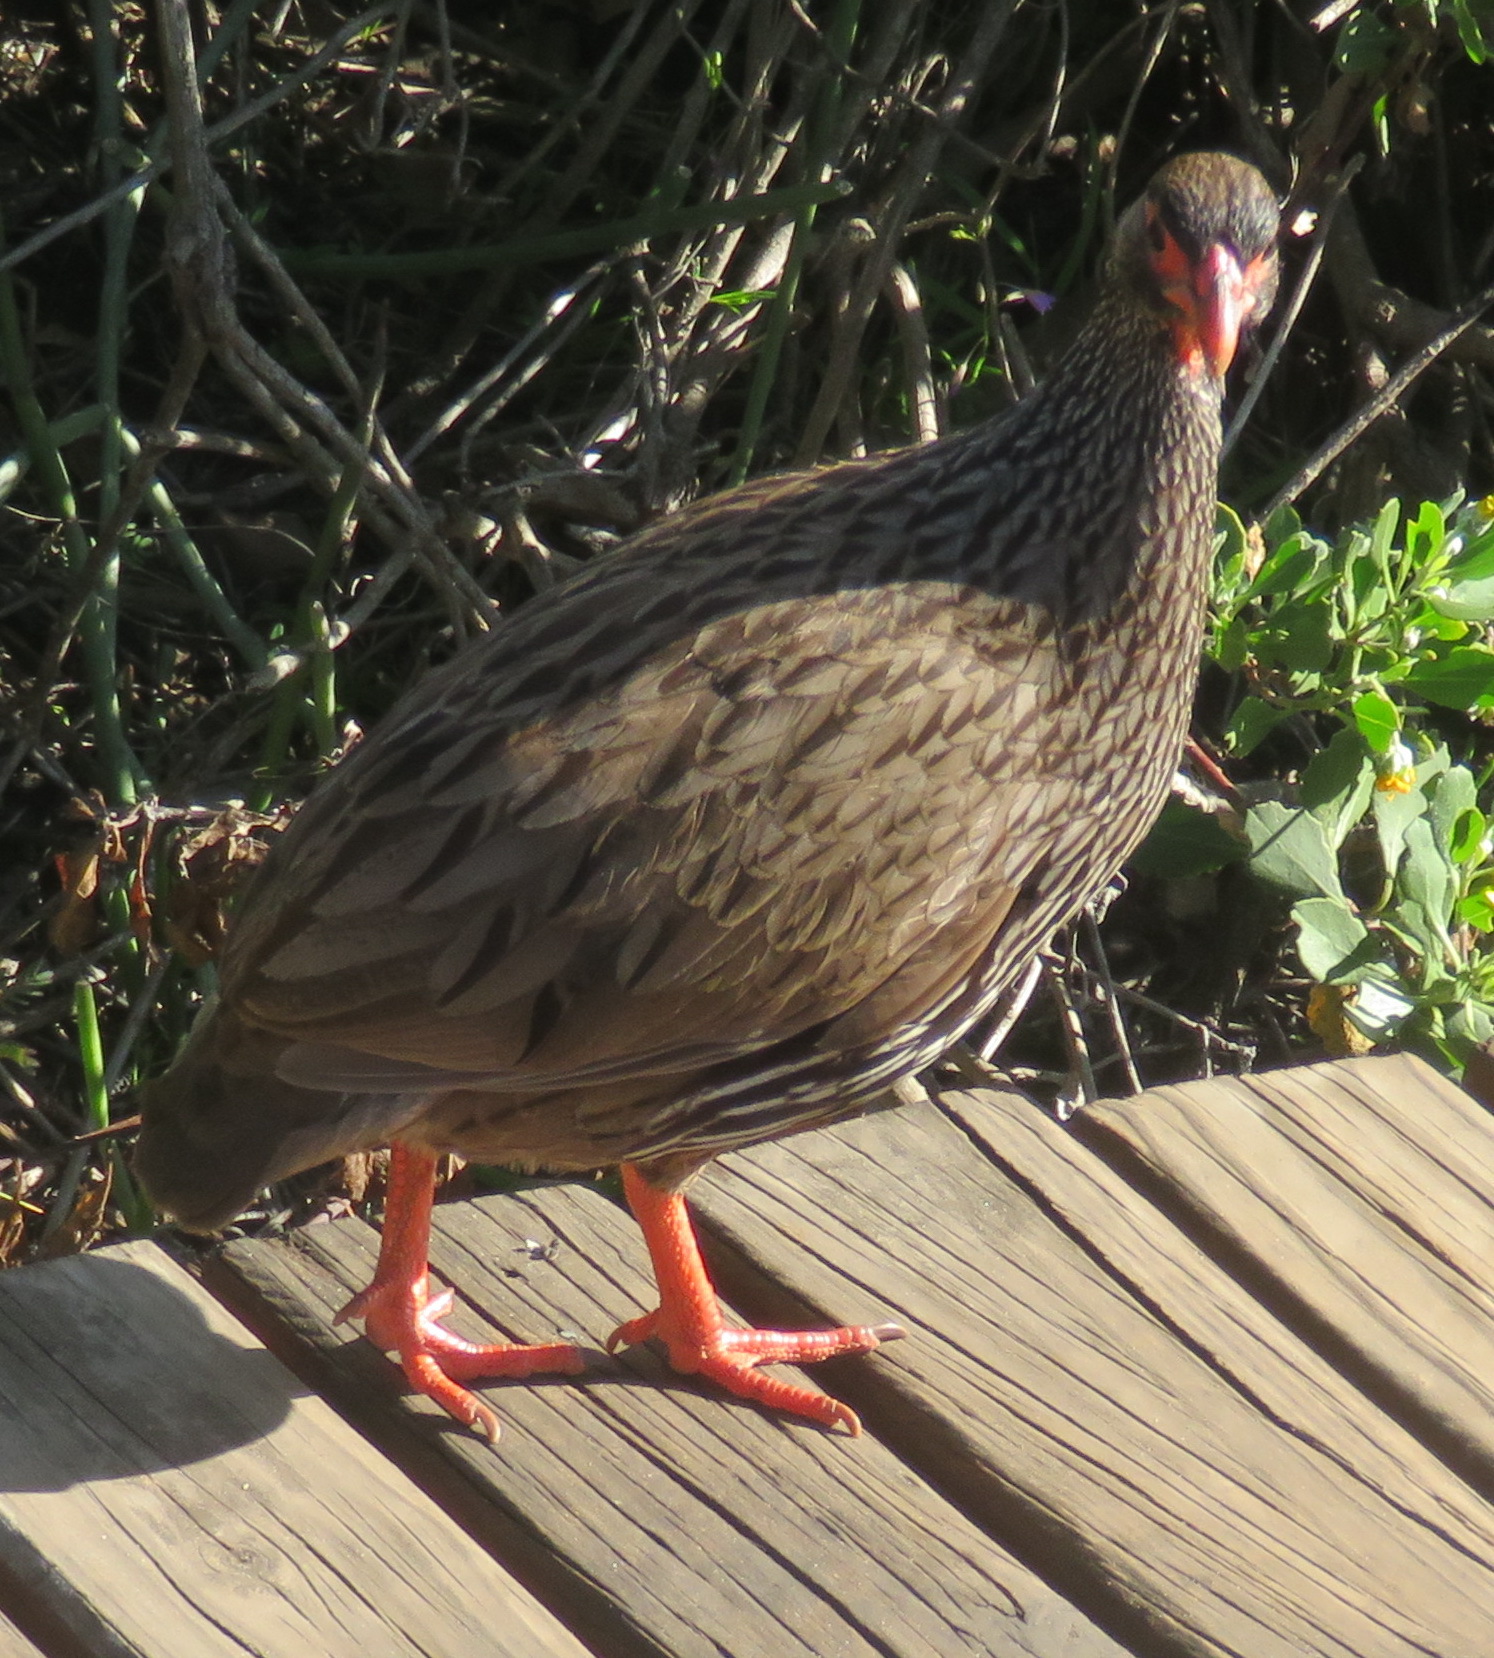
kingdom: Animalia
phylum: Chordata
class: Aves
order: Galliformes
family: Phasianidae
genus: Pternistis
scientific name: Pternistis afer
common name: Red-necked spurfowl
